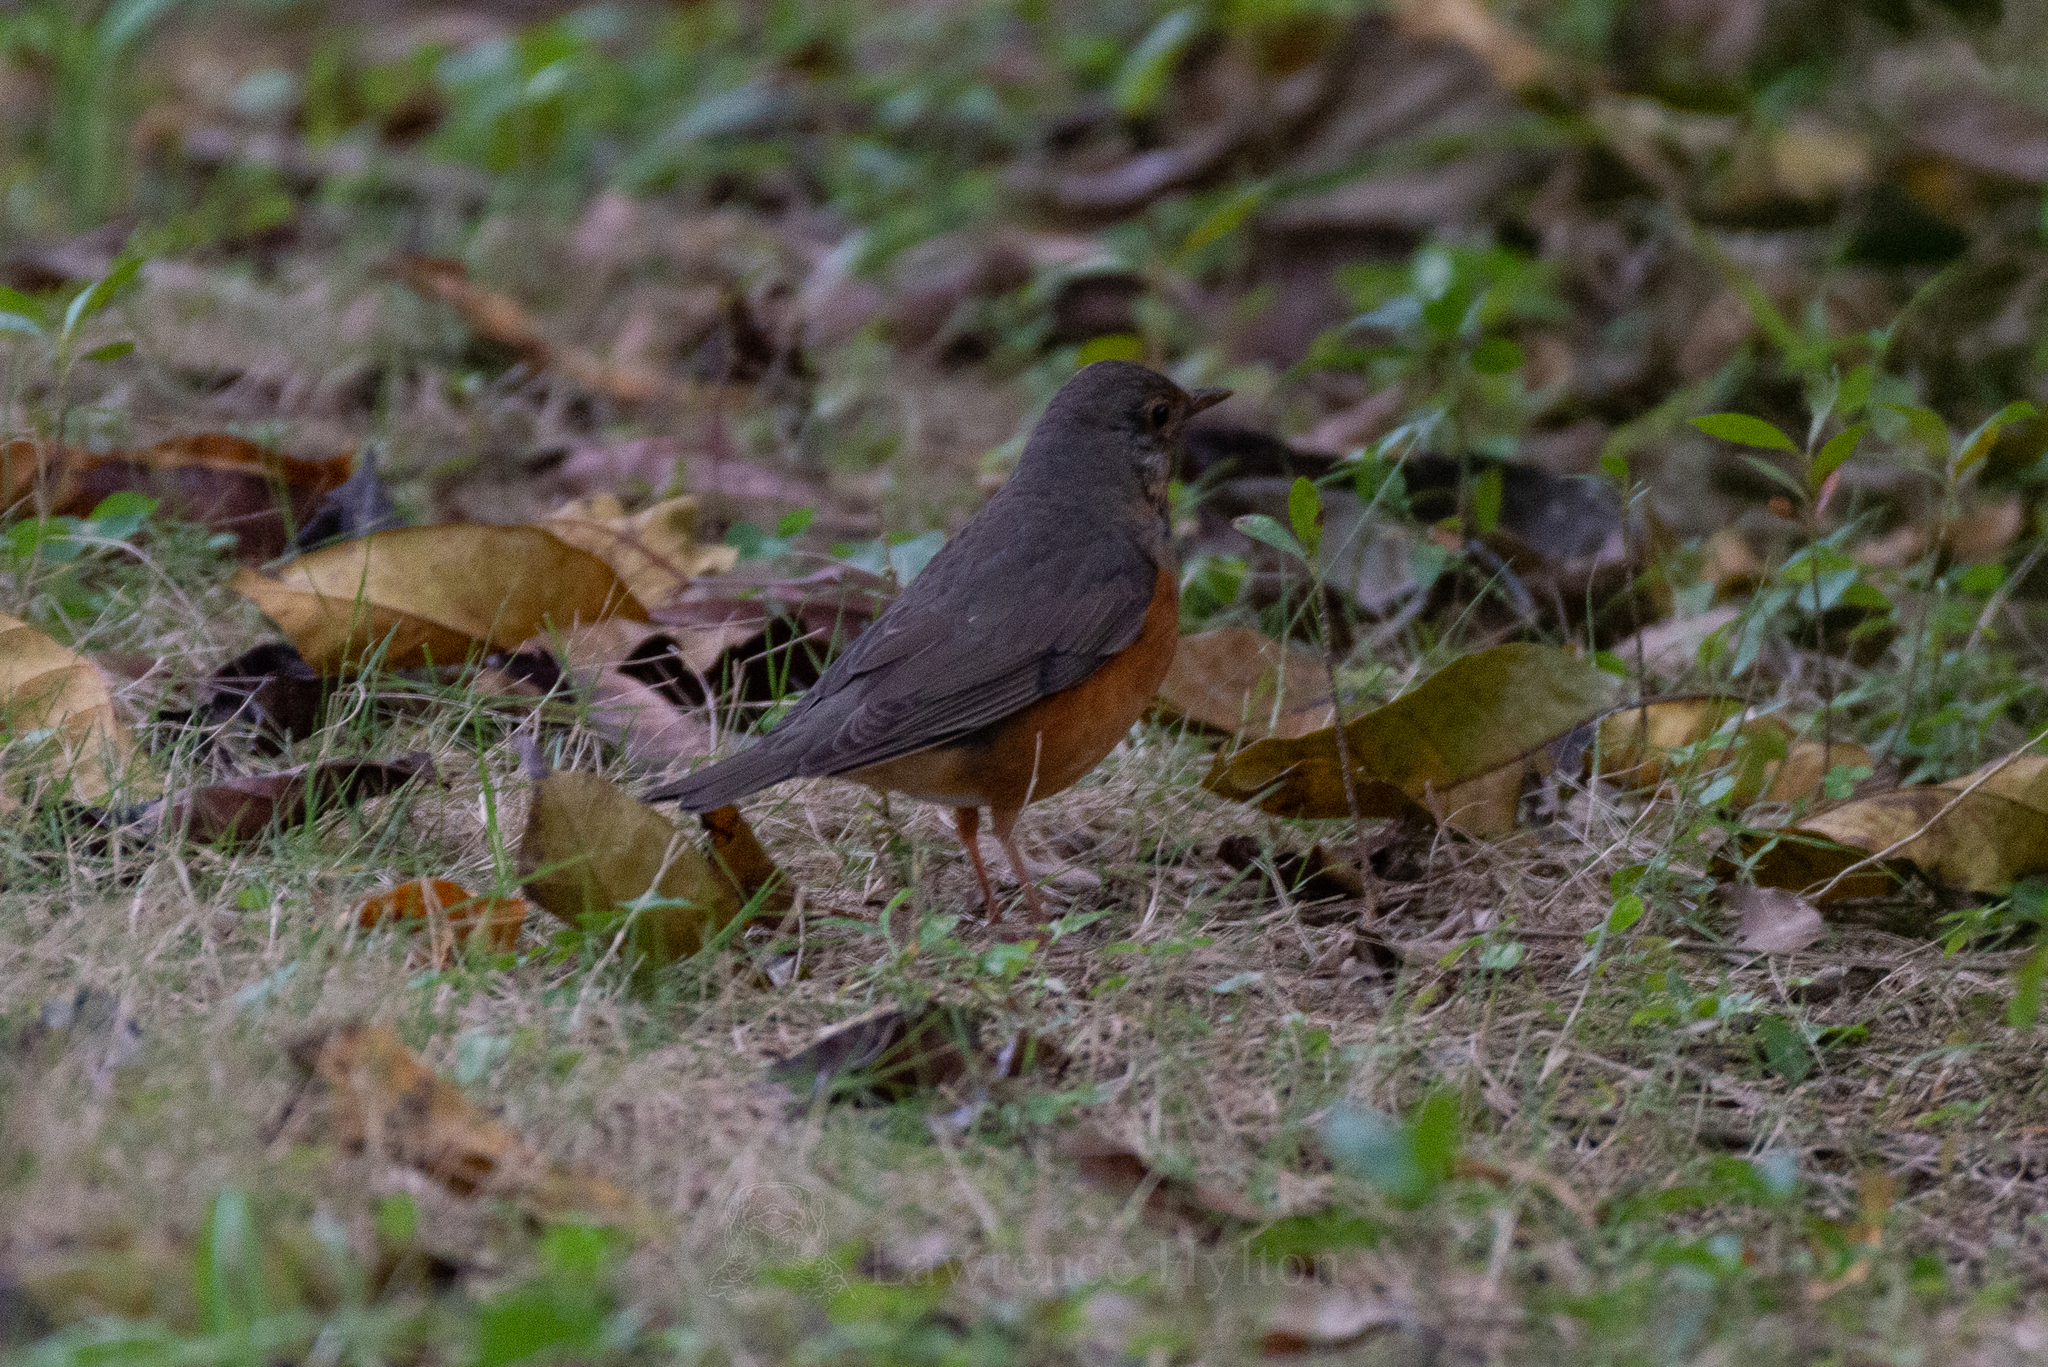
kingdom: Animalia
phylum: Chordata
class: Aves
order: Passeriformes
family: Turdidae
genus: Turdus
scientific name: Turdus hortulorum
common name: Grey-backed thrush
